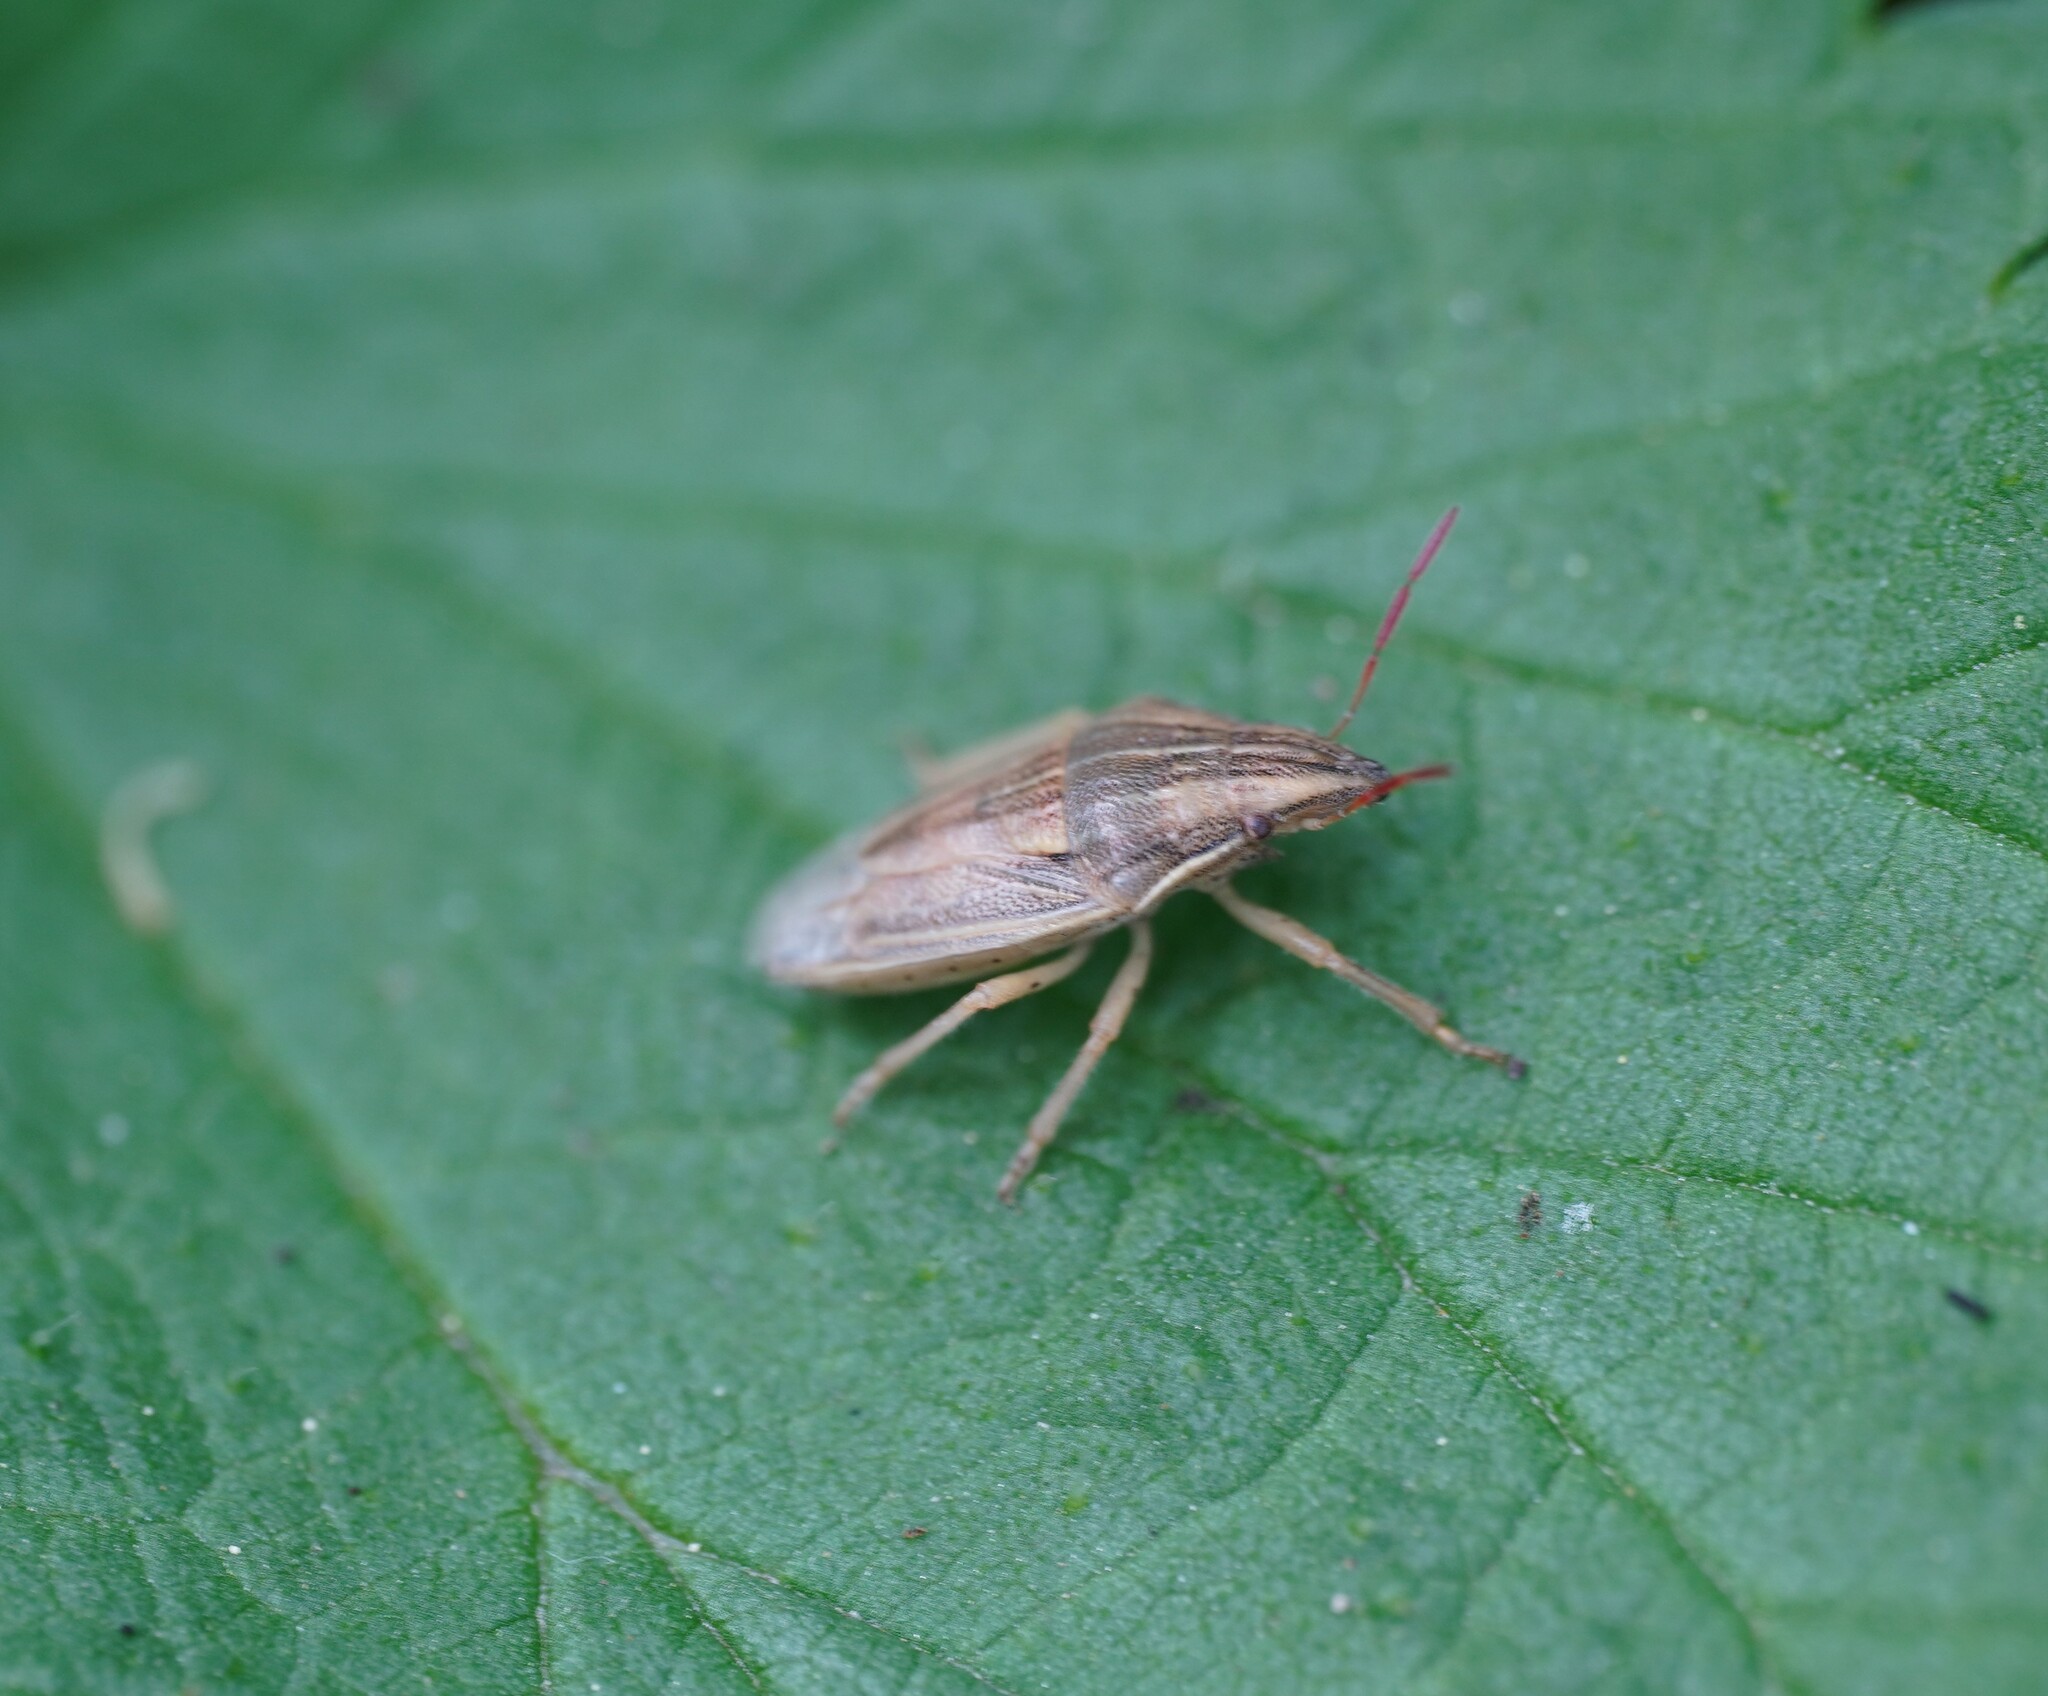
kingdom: Animalia
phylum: Arthropoda
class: Insecta
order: Hemiptera
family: Pentatomidae
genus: Aelia
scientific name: Aelia acuminata
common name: Bishop's mitre
